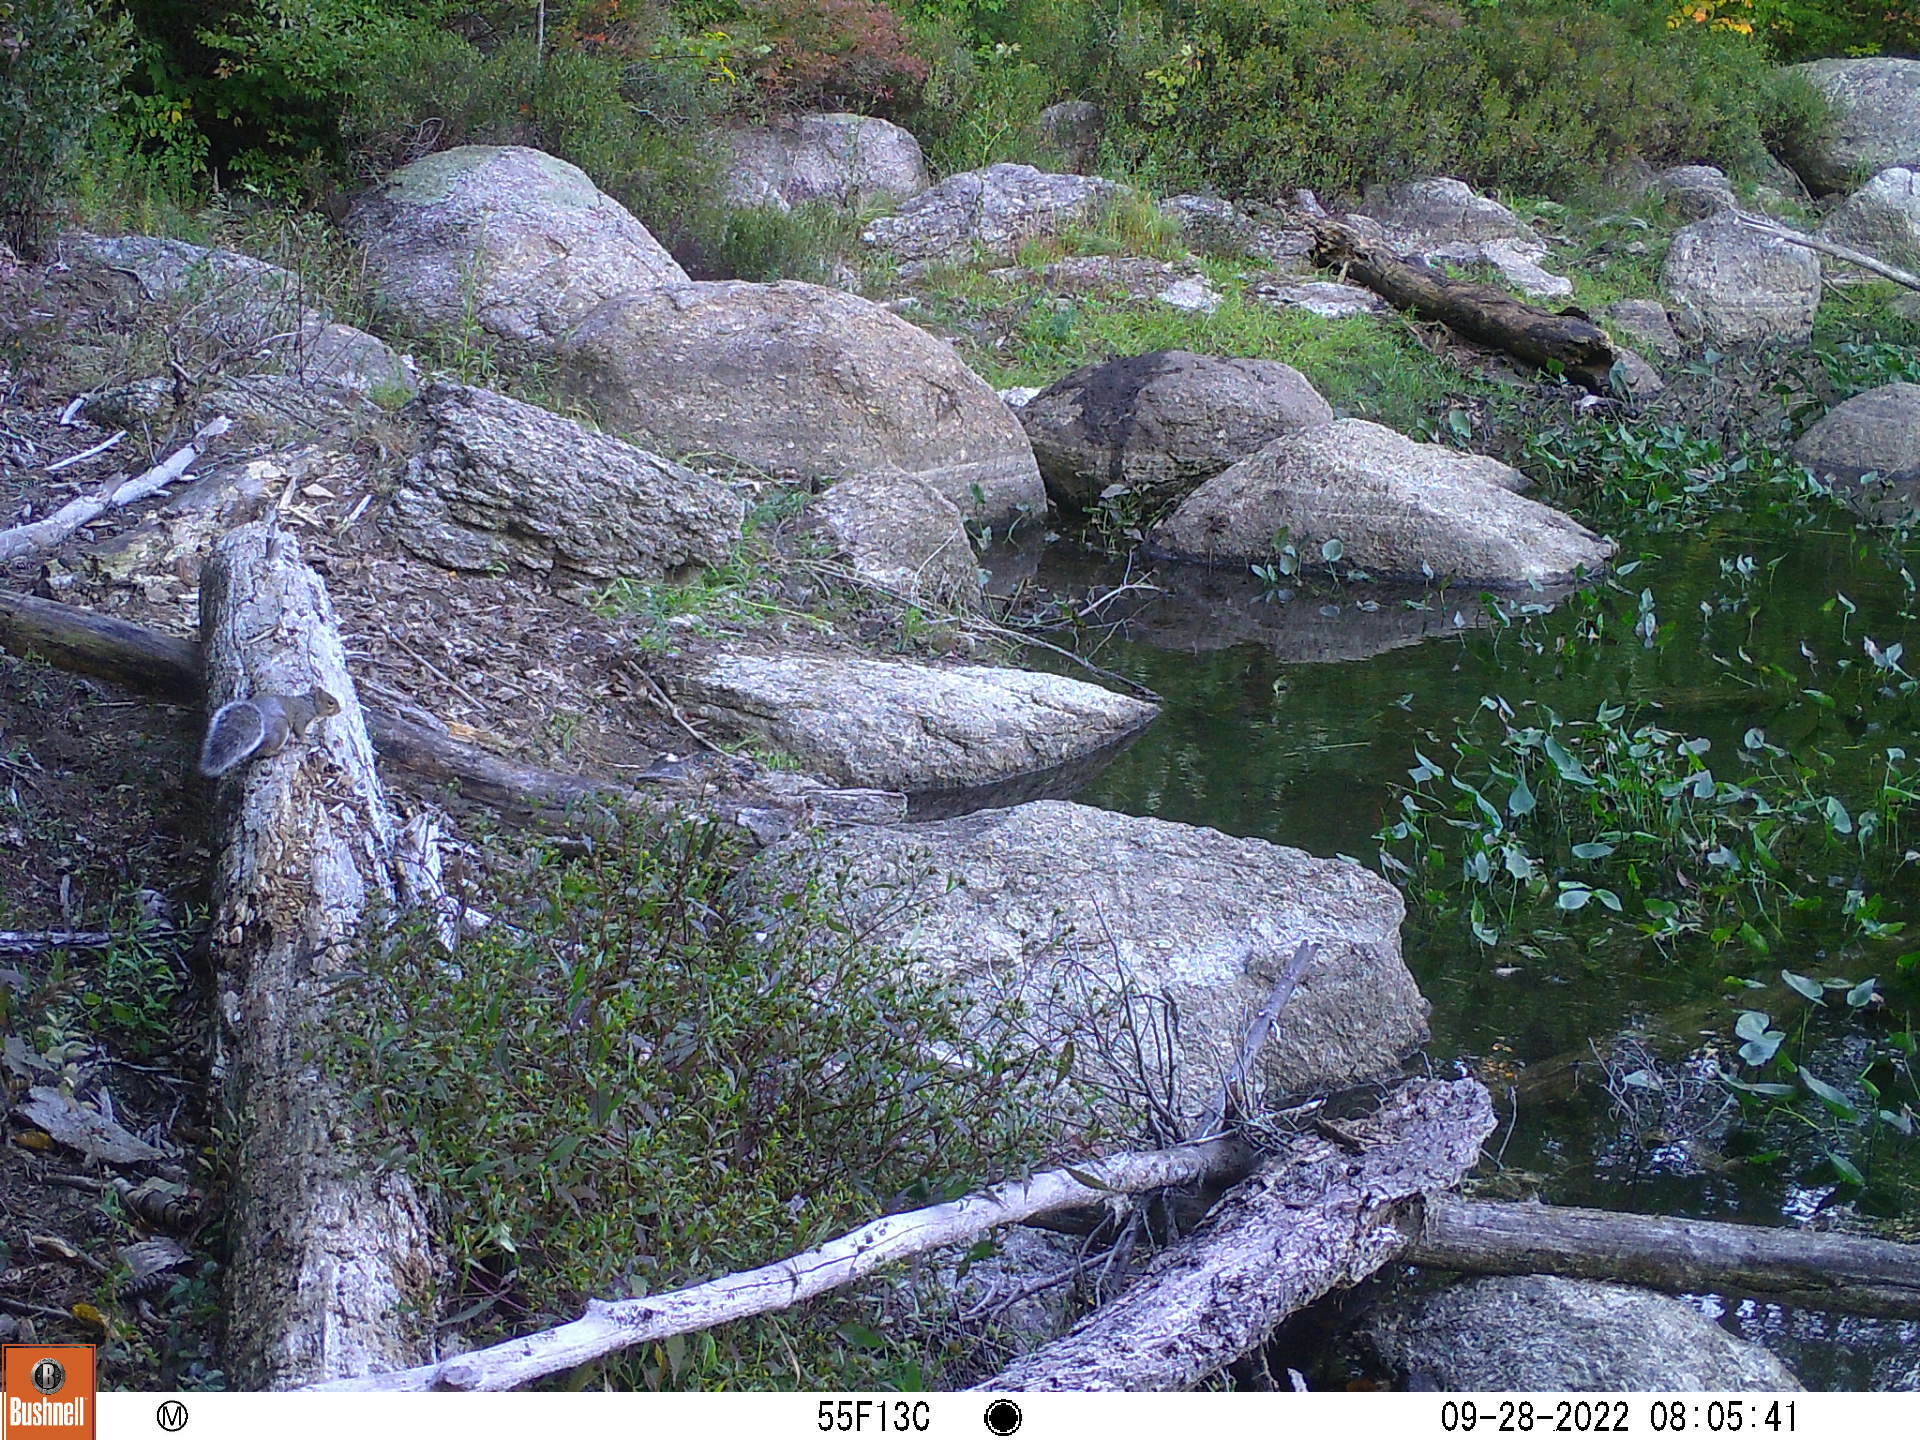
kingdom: Animalia
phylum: Chordata
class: Mammalia
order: Rodentia
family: Sciuridae
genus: Sciurus
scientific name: Sciurus carolinensis
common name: Eastern gray squirrel
